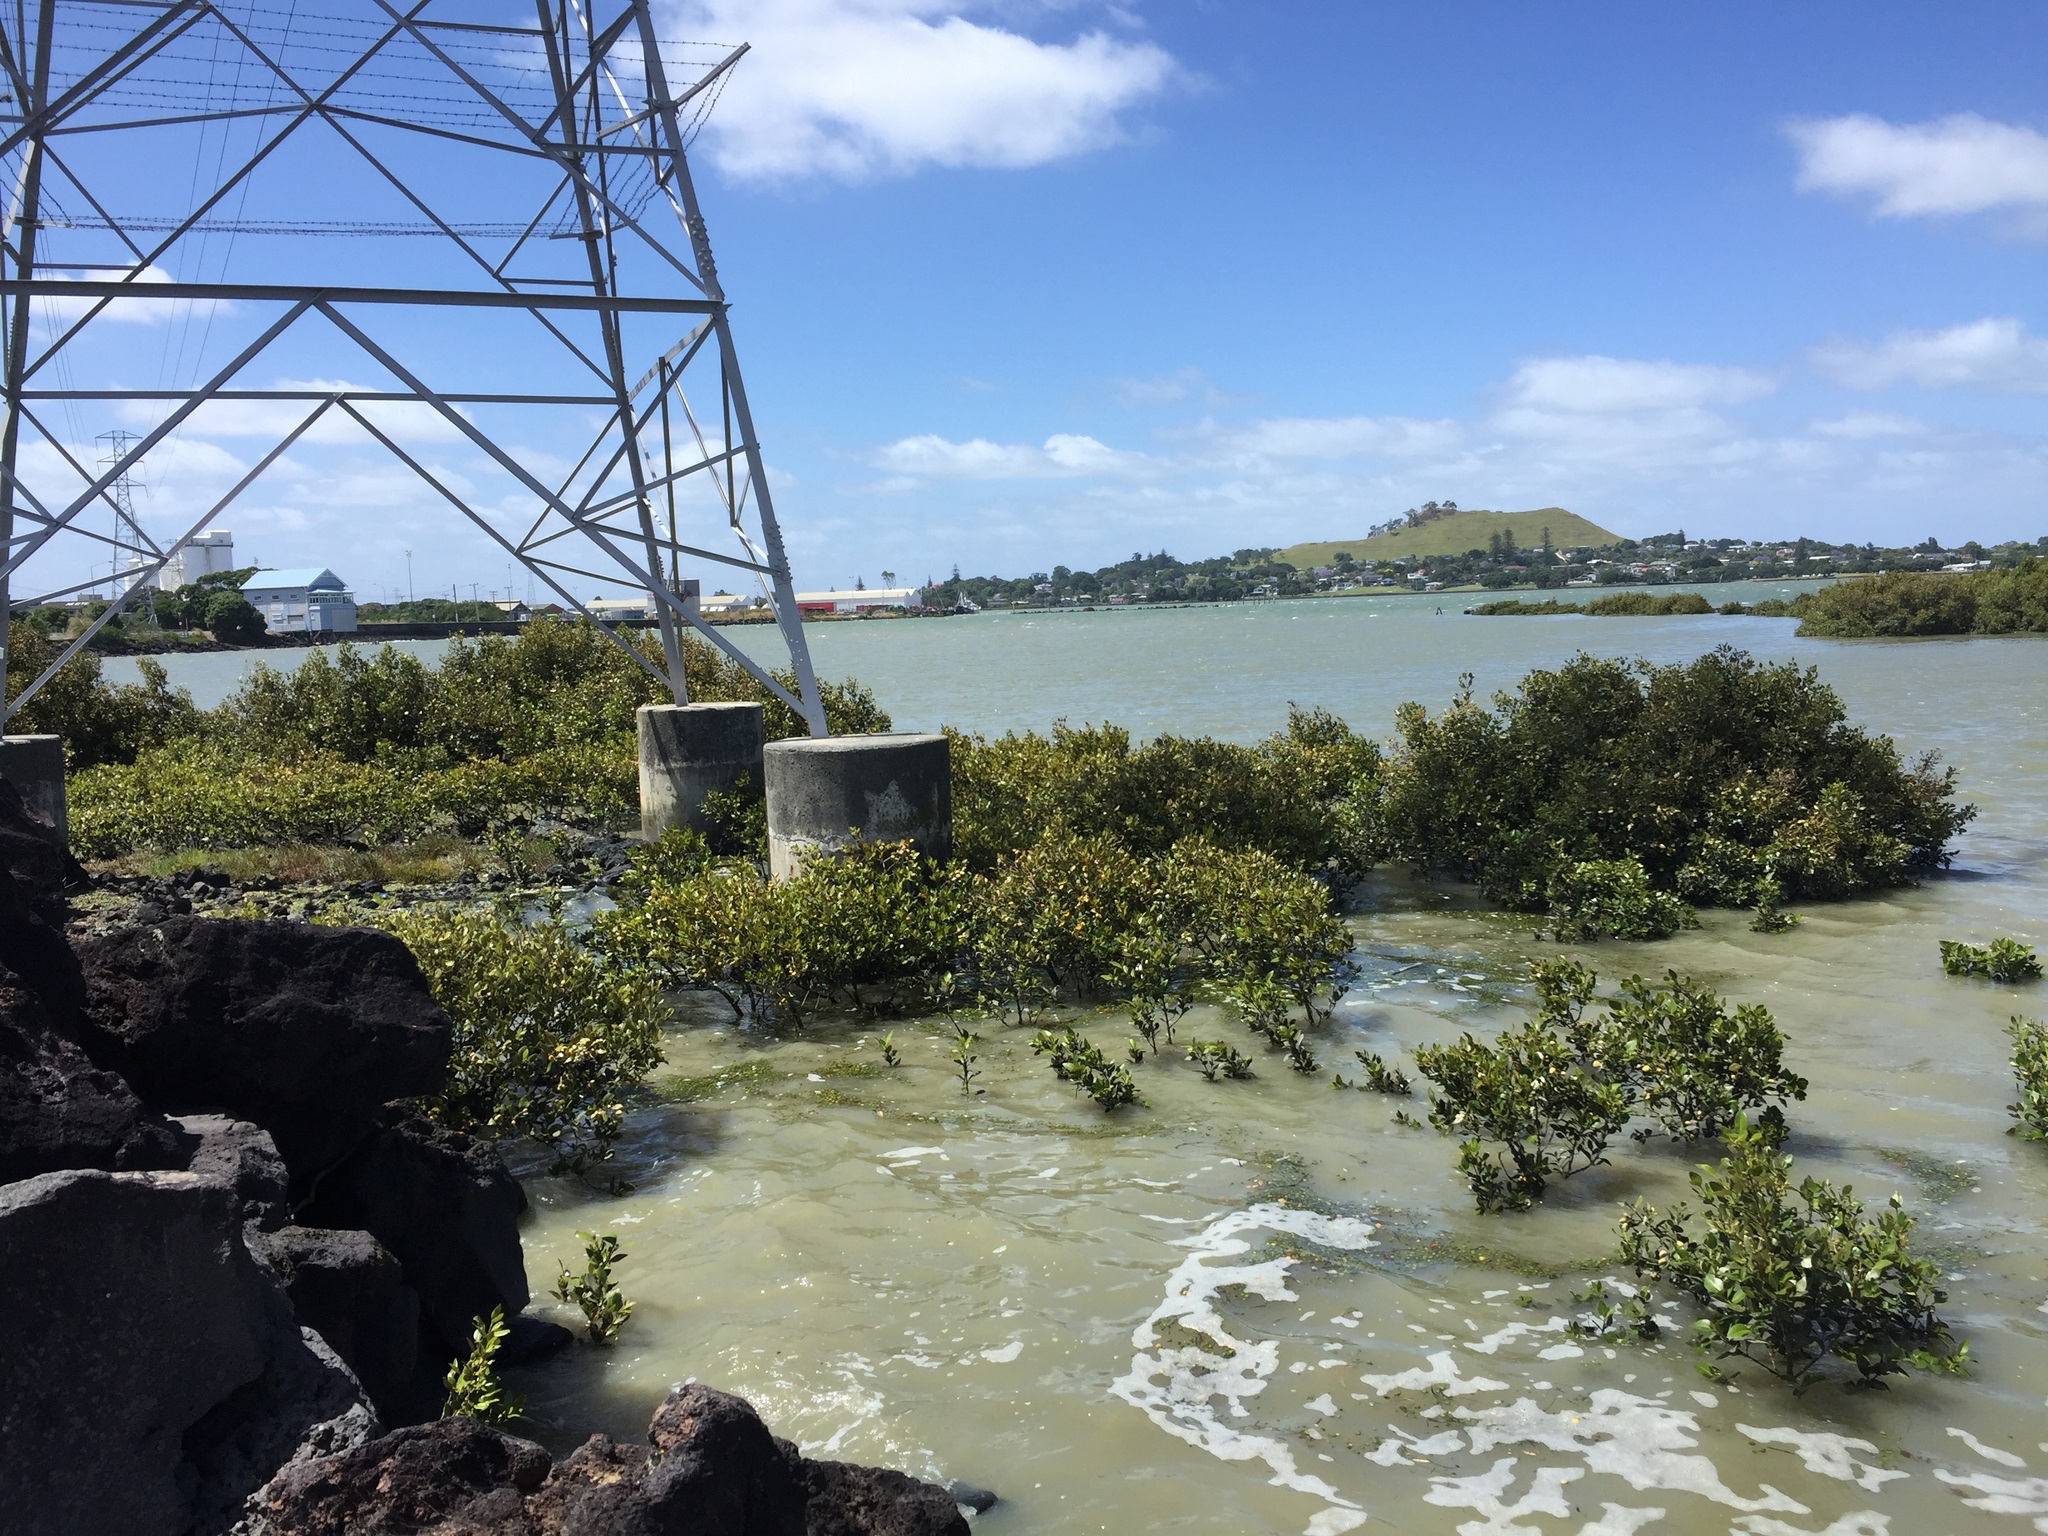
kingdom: Plantae
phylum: Tracheophyta
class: Magnoliopsida
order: Lamiales
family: Acanthaceae
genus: Avicennia
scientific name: Avicennia marina
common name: Gray mangrove
